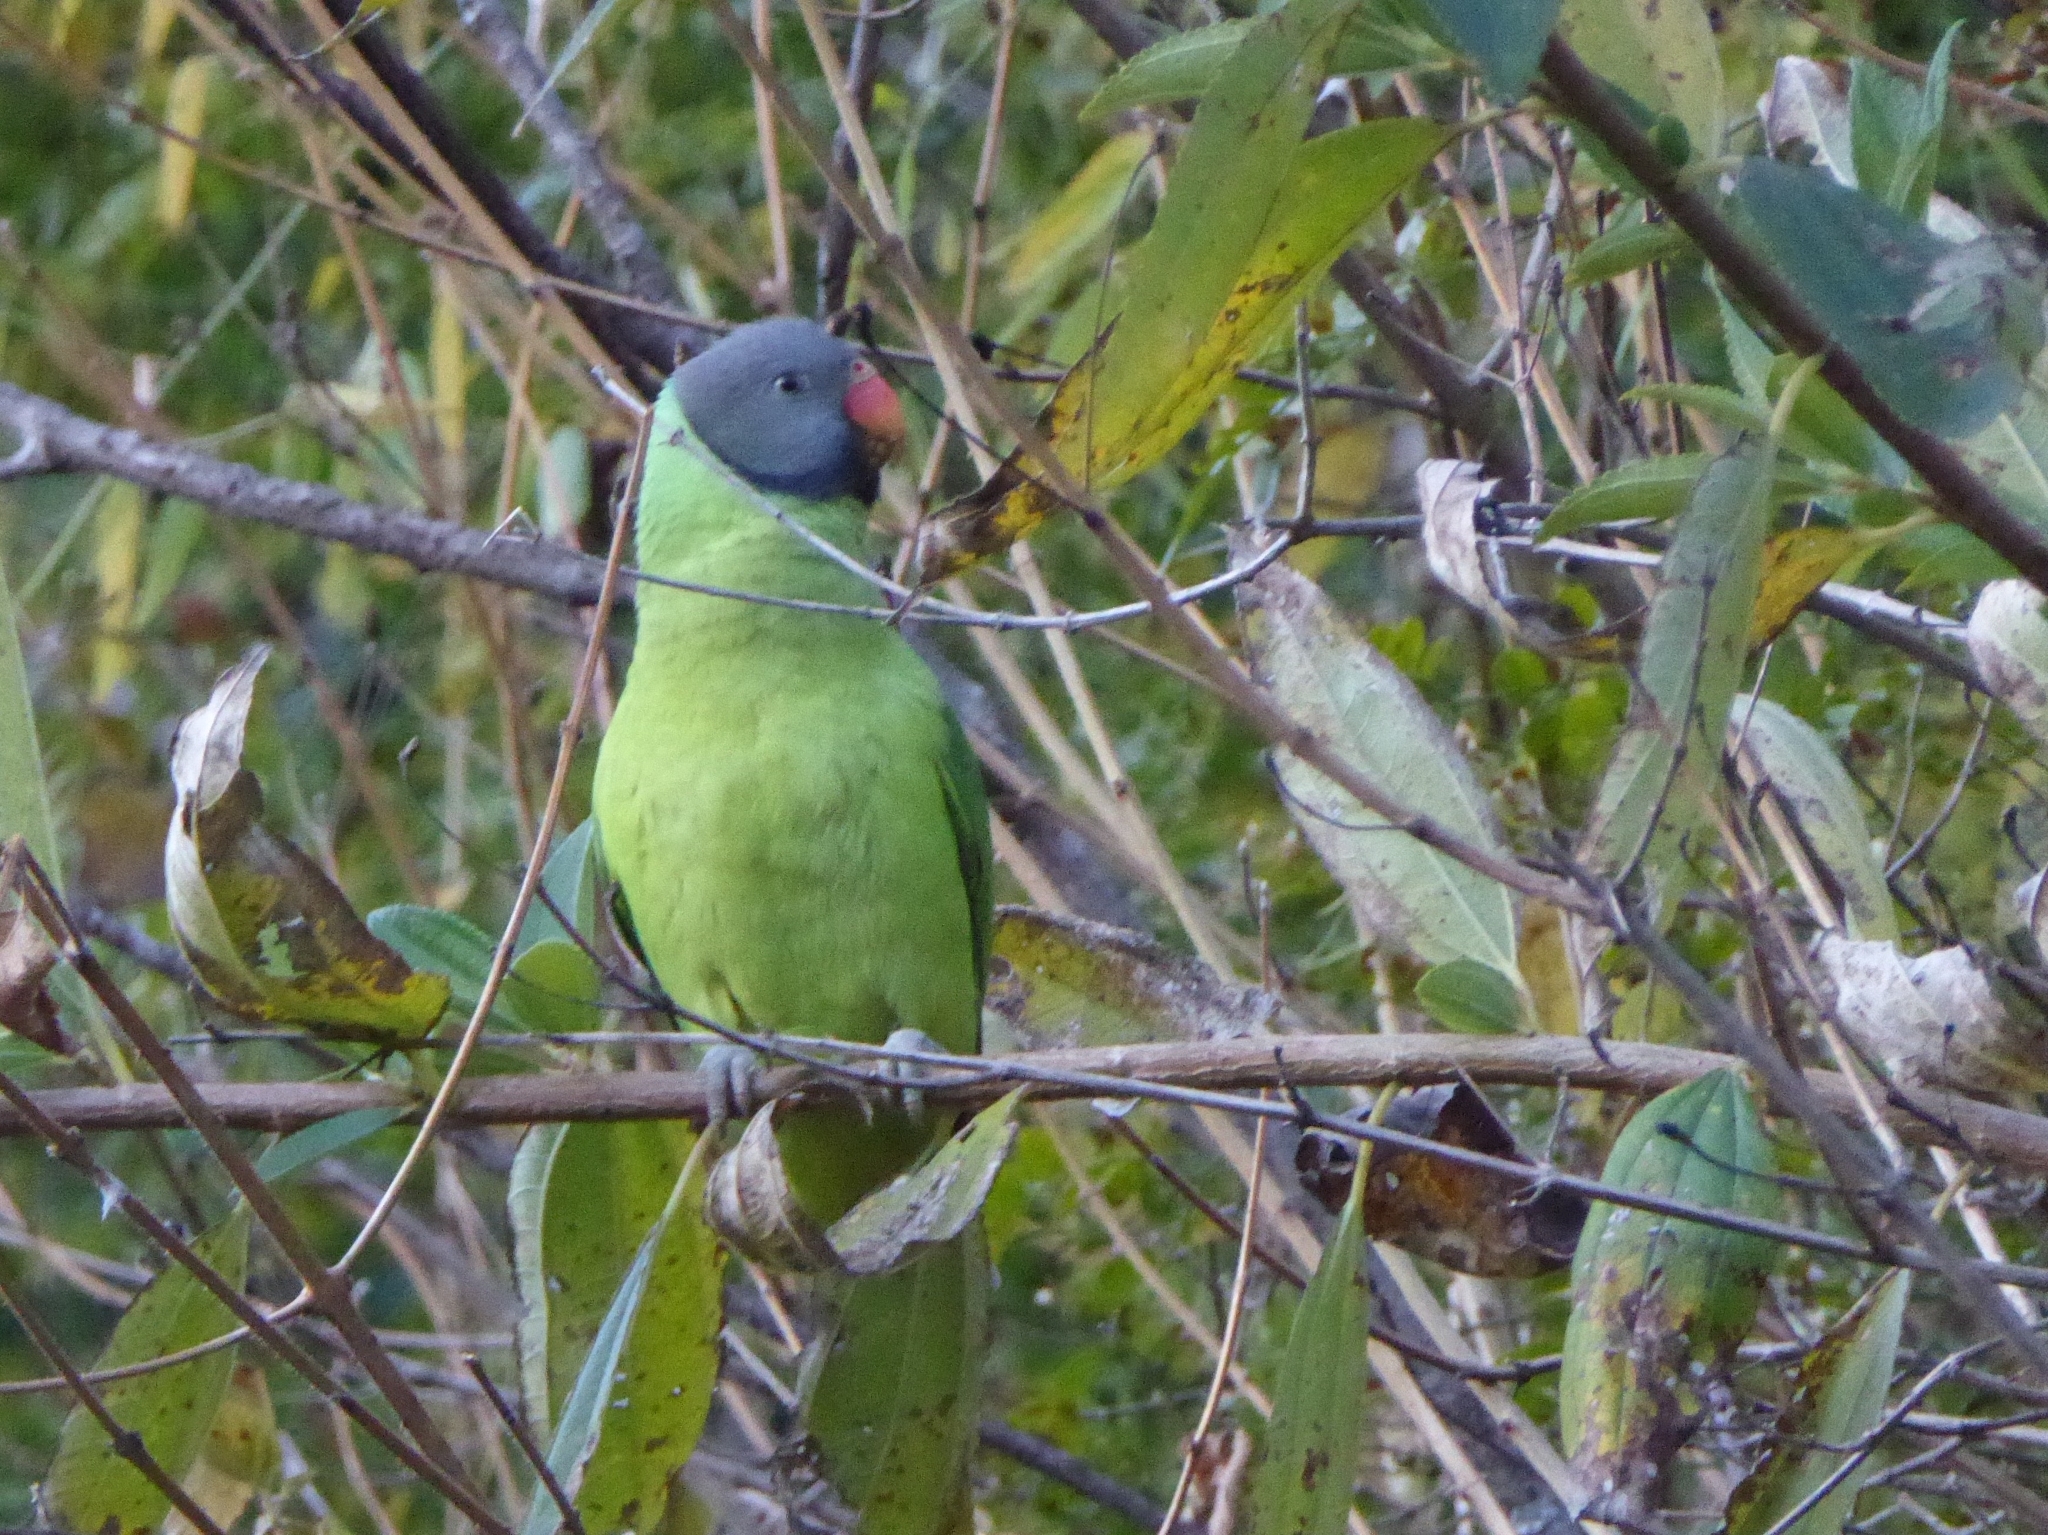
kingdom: Animalia
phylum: Chordata
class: Aves
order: Psittaciformes
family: Psittacidae
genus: Psittacula
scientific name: Psittacula himalayana
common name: Slaty-headed parakeet
